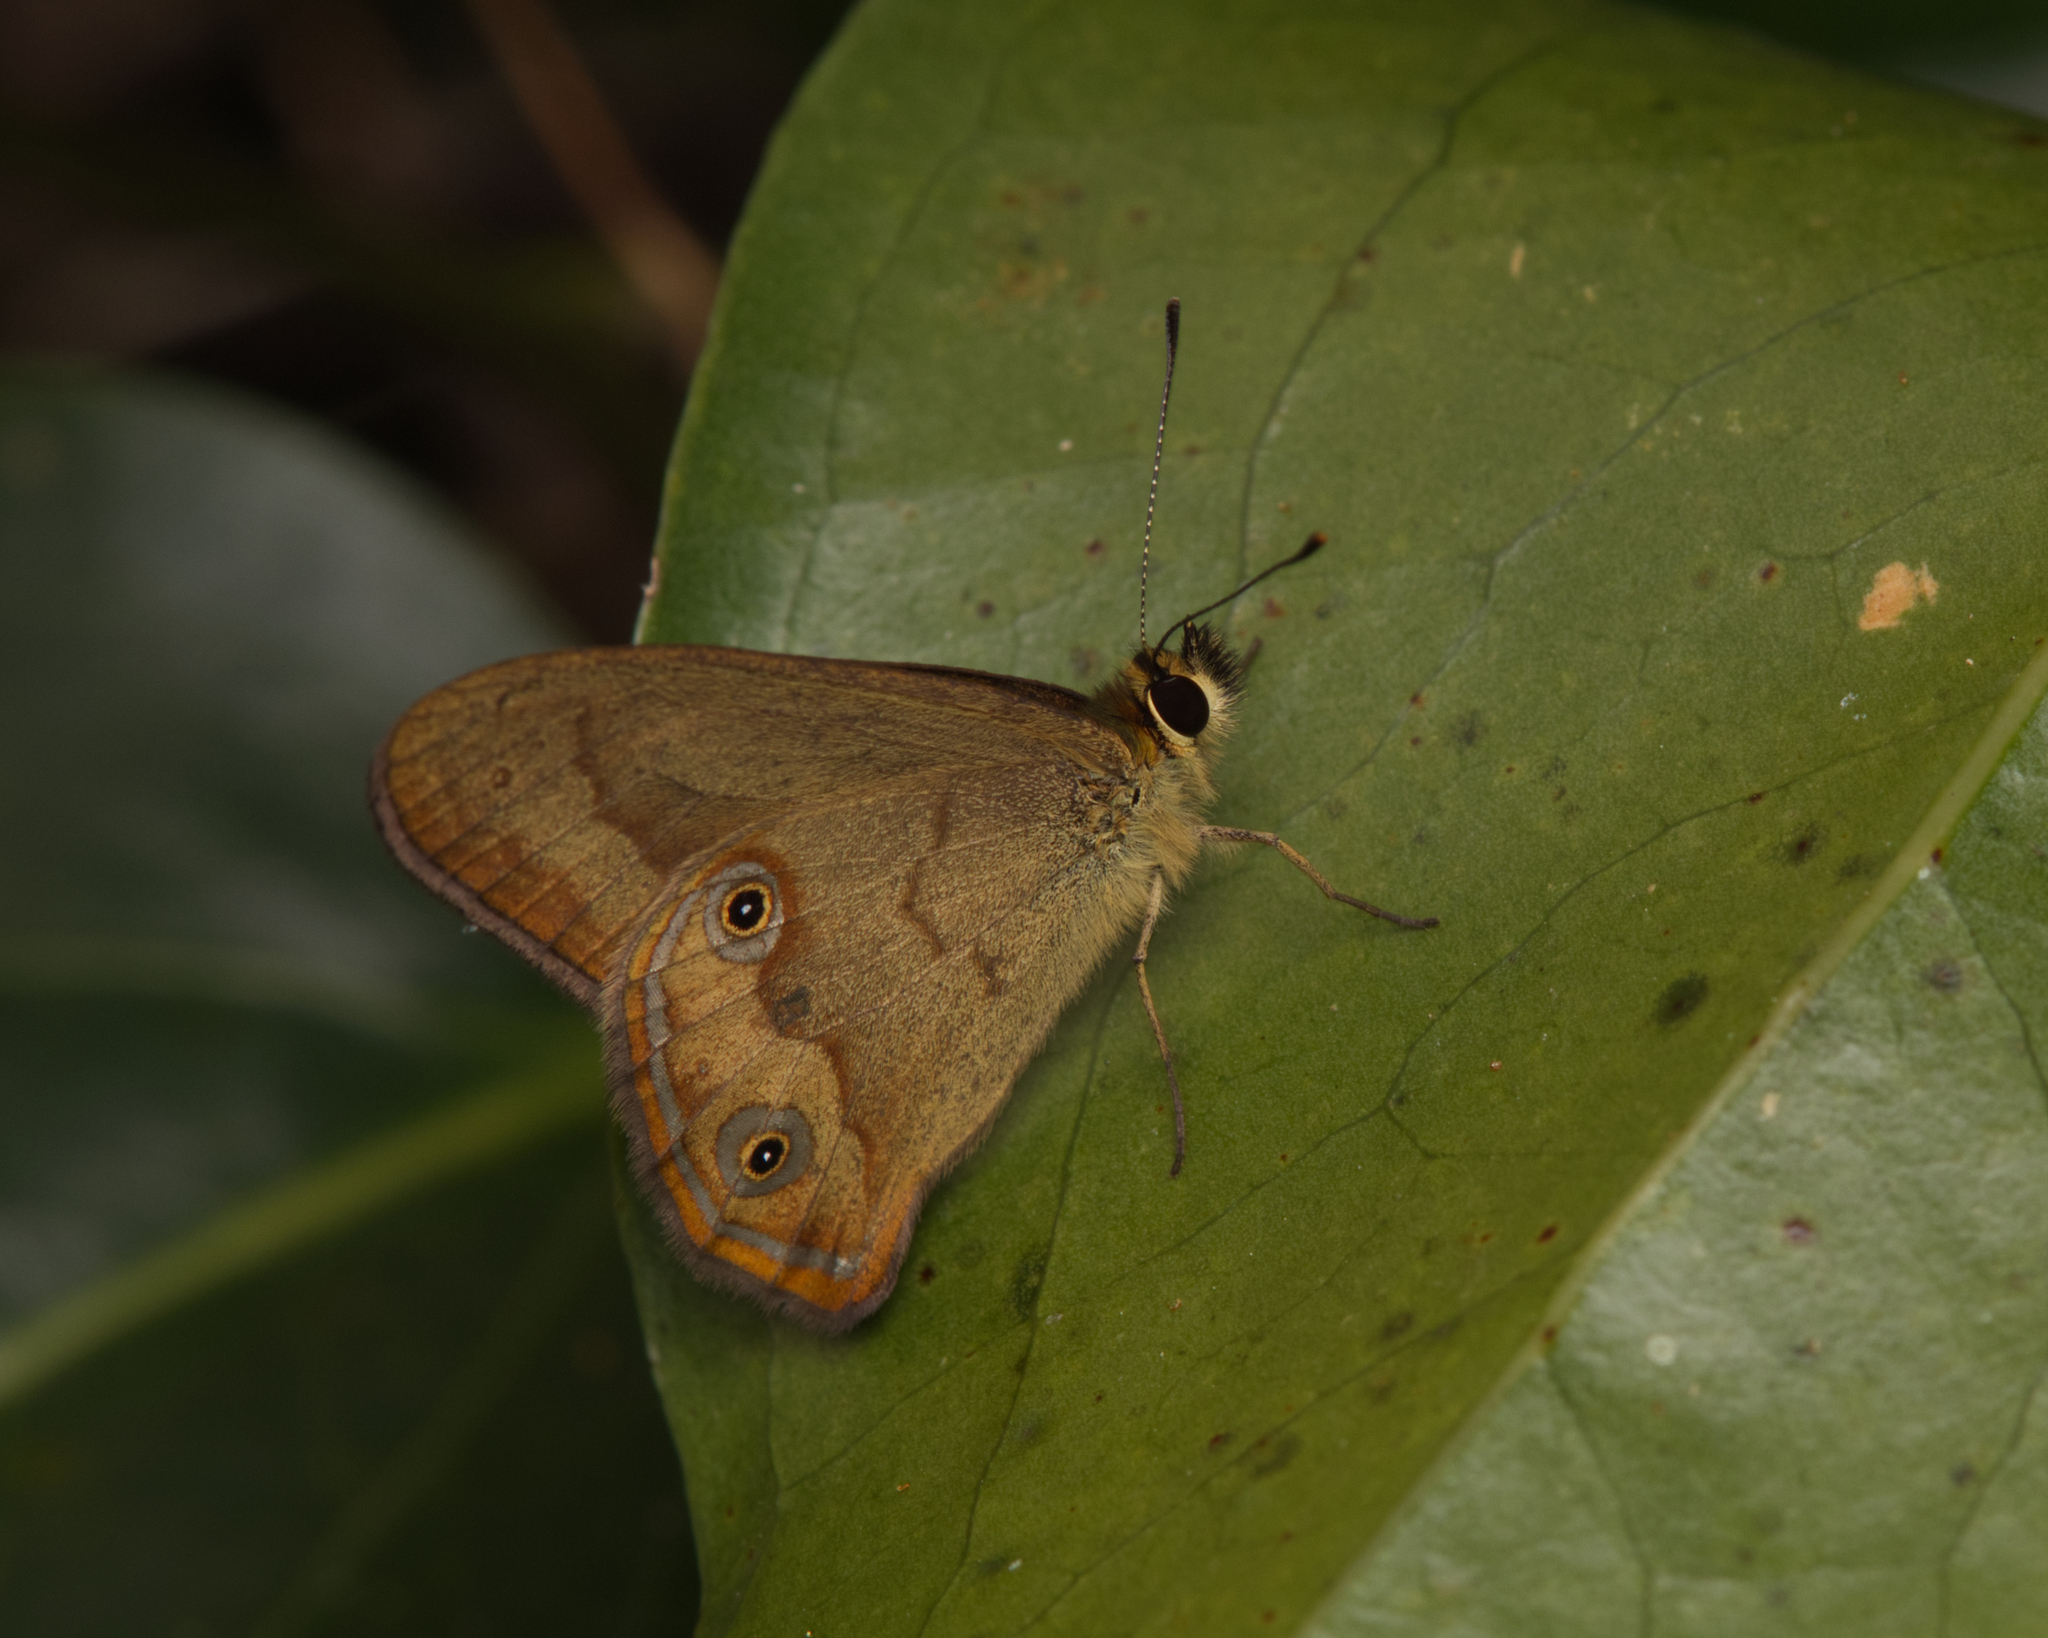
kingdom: Animalia
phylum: Arthropoda
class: Insecta
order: Lepidoptera
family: Nymphalidae
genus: Hypocysta
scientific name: Hypocysta metirius
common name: Brown ringlet
